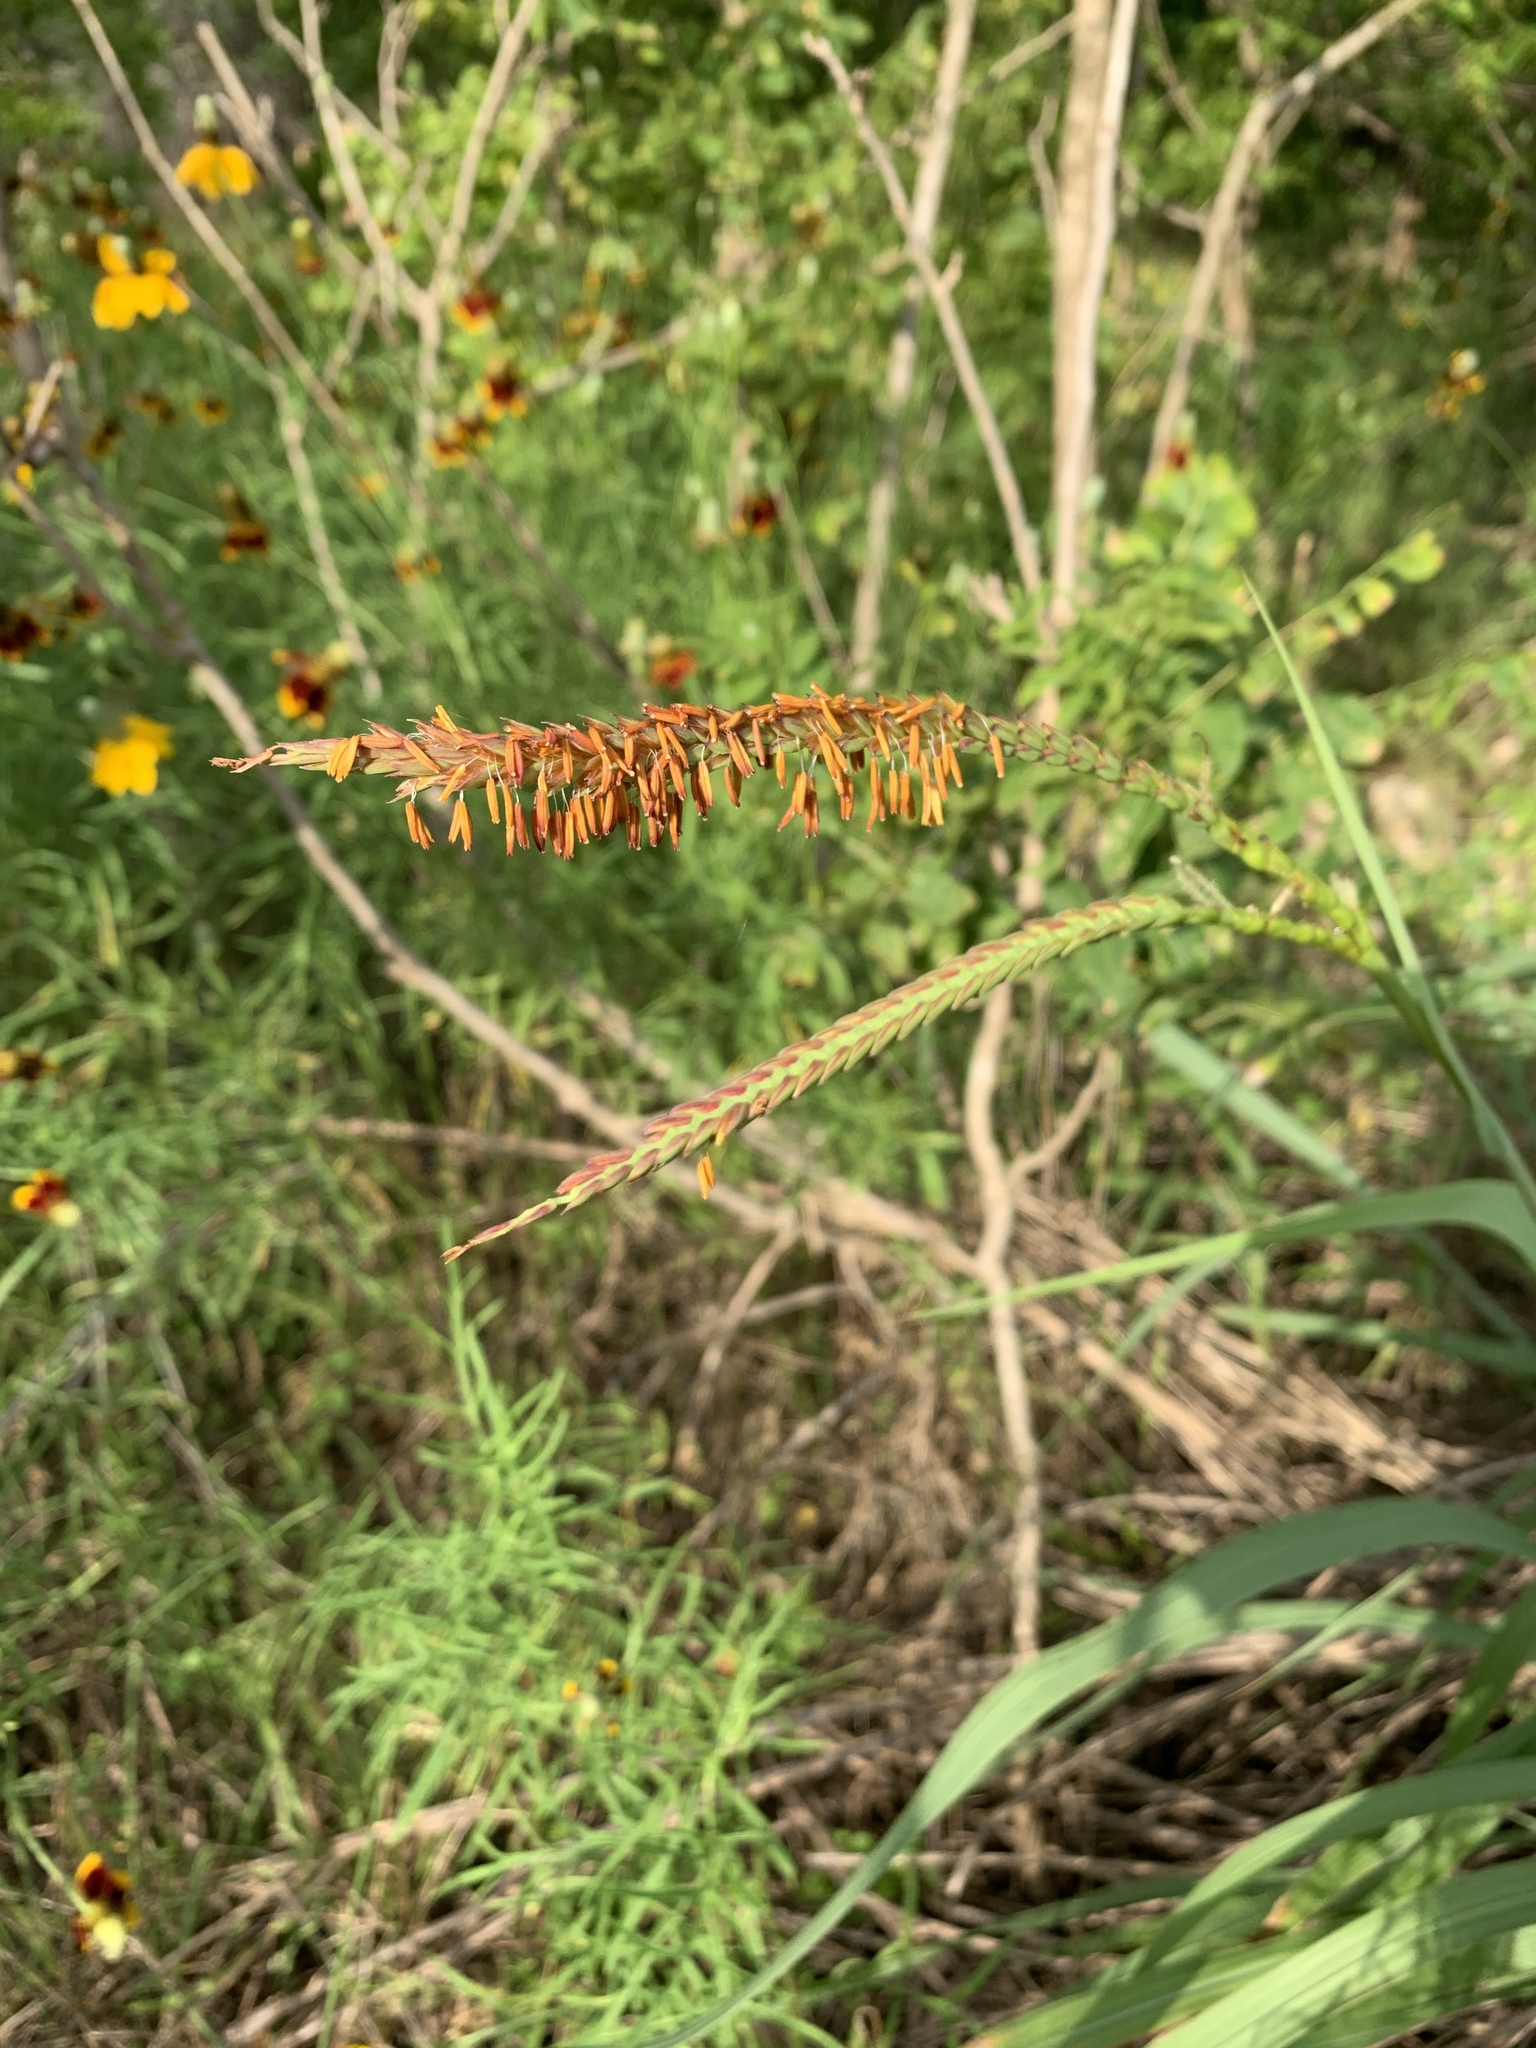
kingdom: Plantae
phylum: Tracheophyta
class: Liliopsida
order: Poales
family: Poaceae
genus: Tripsacum
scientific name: Tripsacum dactyloides
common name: Buffalo-grass
